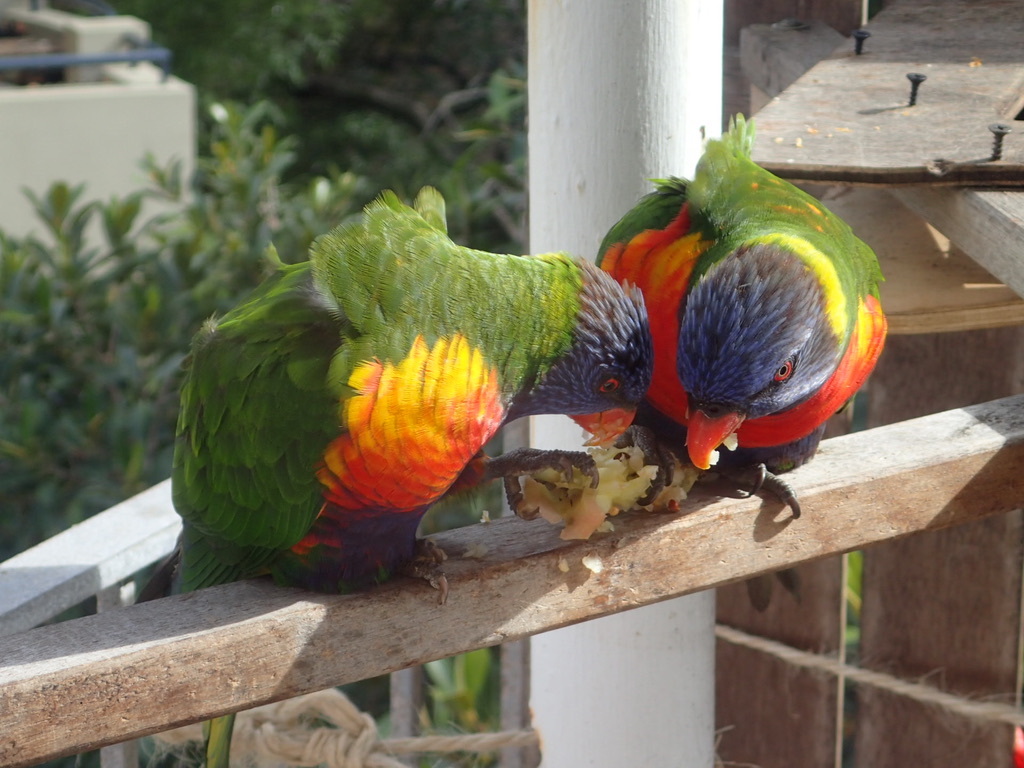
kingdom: Animalia
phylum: Chordata
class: Aves
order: Psittaciformes
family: Psittacidae
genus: Trichoglossus
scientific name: Trichoglossus haematodus
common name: Coconut lorikeet
